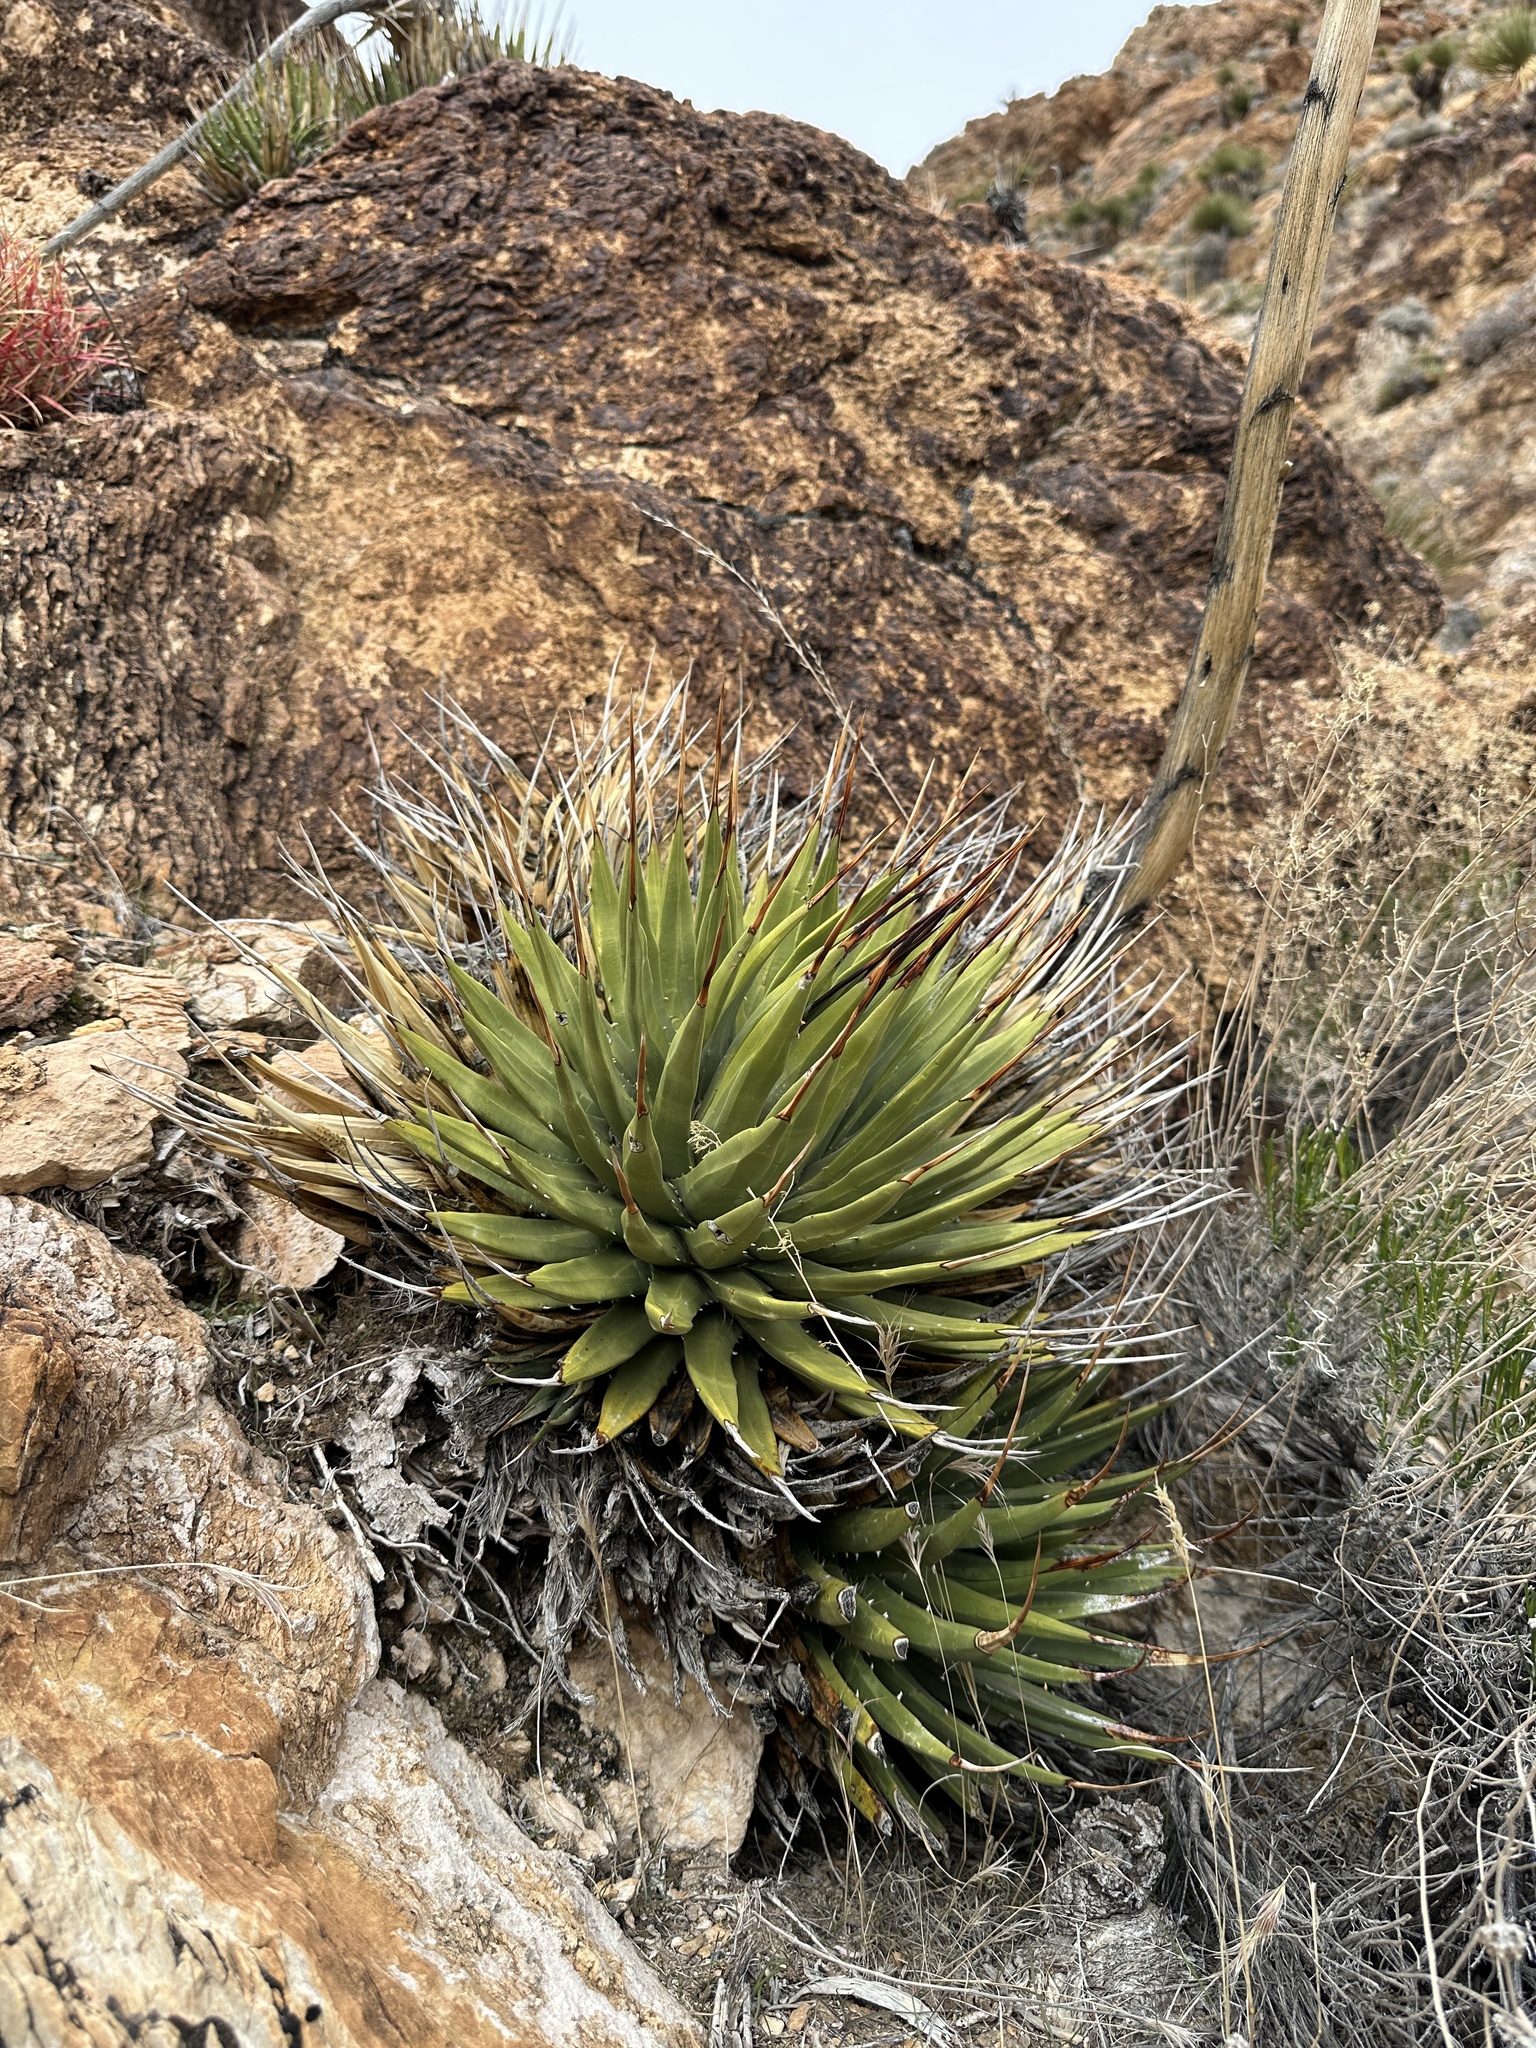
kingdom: Plantae
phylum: Tracheophyta
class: Liliopsida
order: Asparagales
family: Asparagaceae
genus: Agave
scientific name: Agave utahensis
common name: Utah agave
